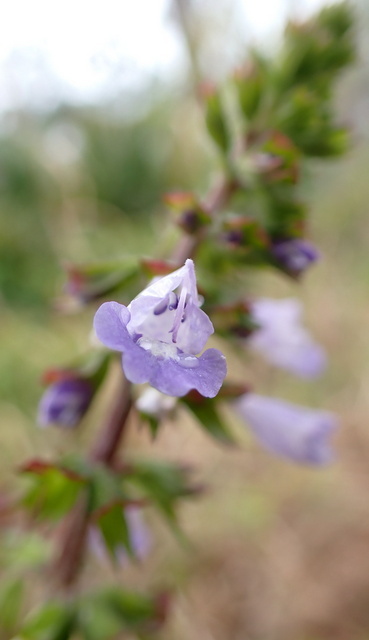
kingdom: Plantae
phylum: Tracheophyta
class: Magnoliopsida
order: Lamiales
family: Lamiaceae
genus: Salvia
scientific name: Salvia lyrata
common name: Cancerweed
